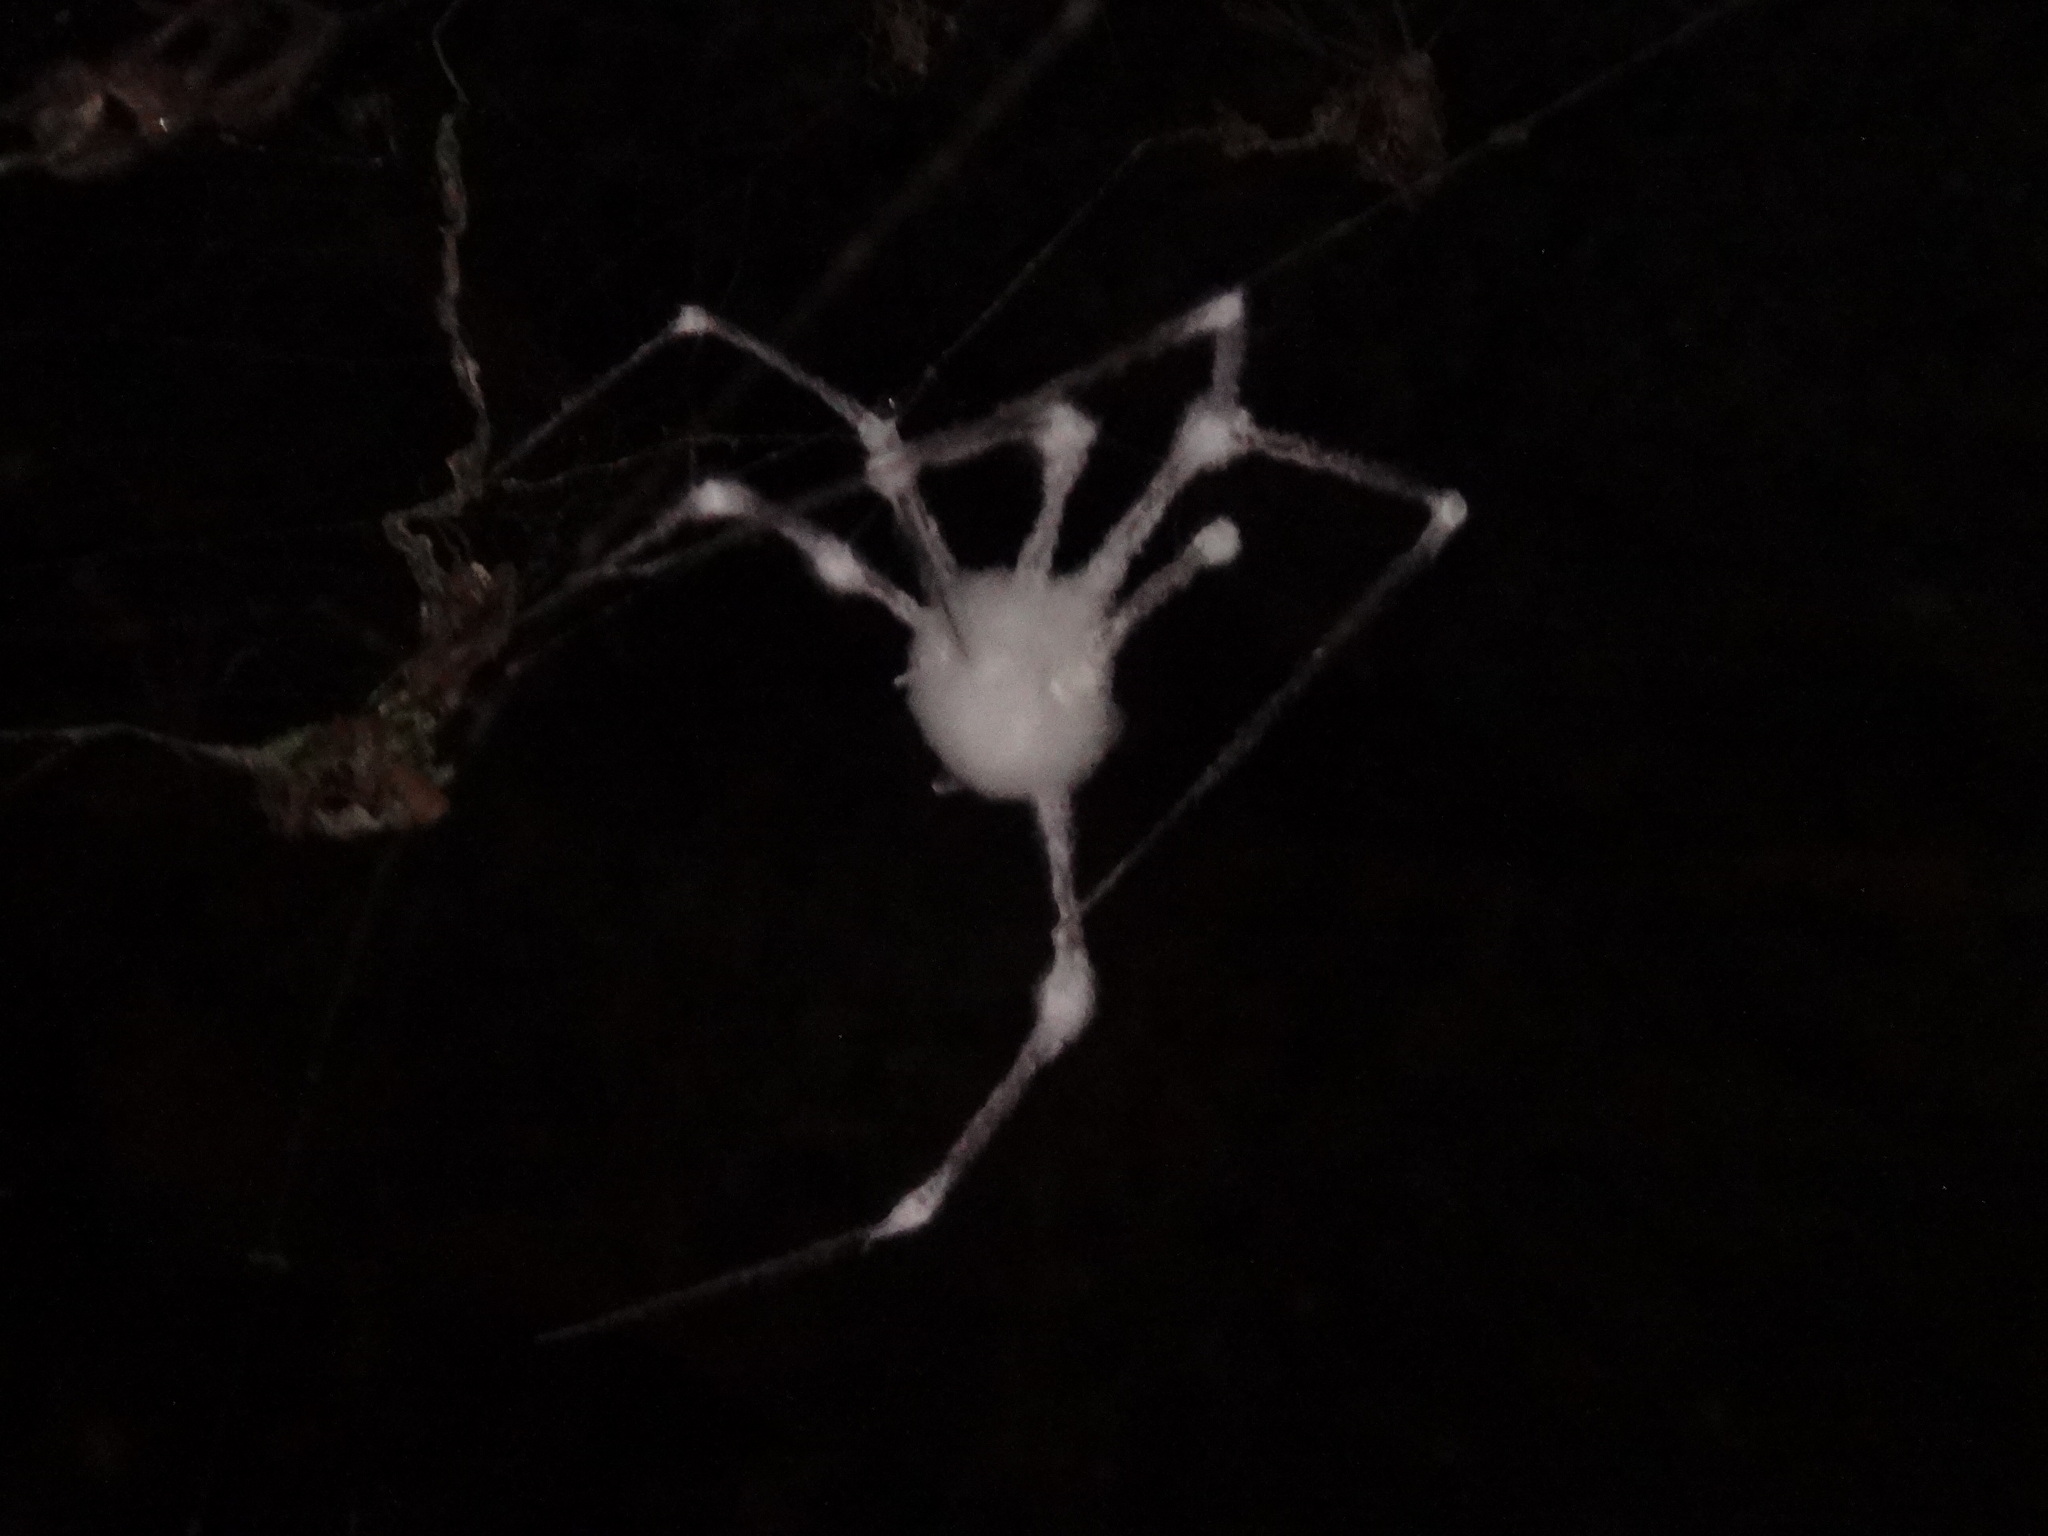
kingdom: Fungi
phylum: Ascomycota
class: Sordariomycetes
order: Hypocreales
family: Cordycipitaceae
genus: Lecanicillium
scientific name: Lecanicillium tenuipes
